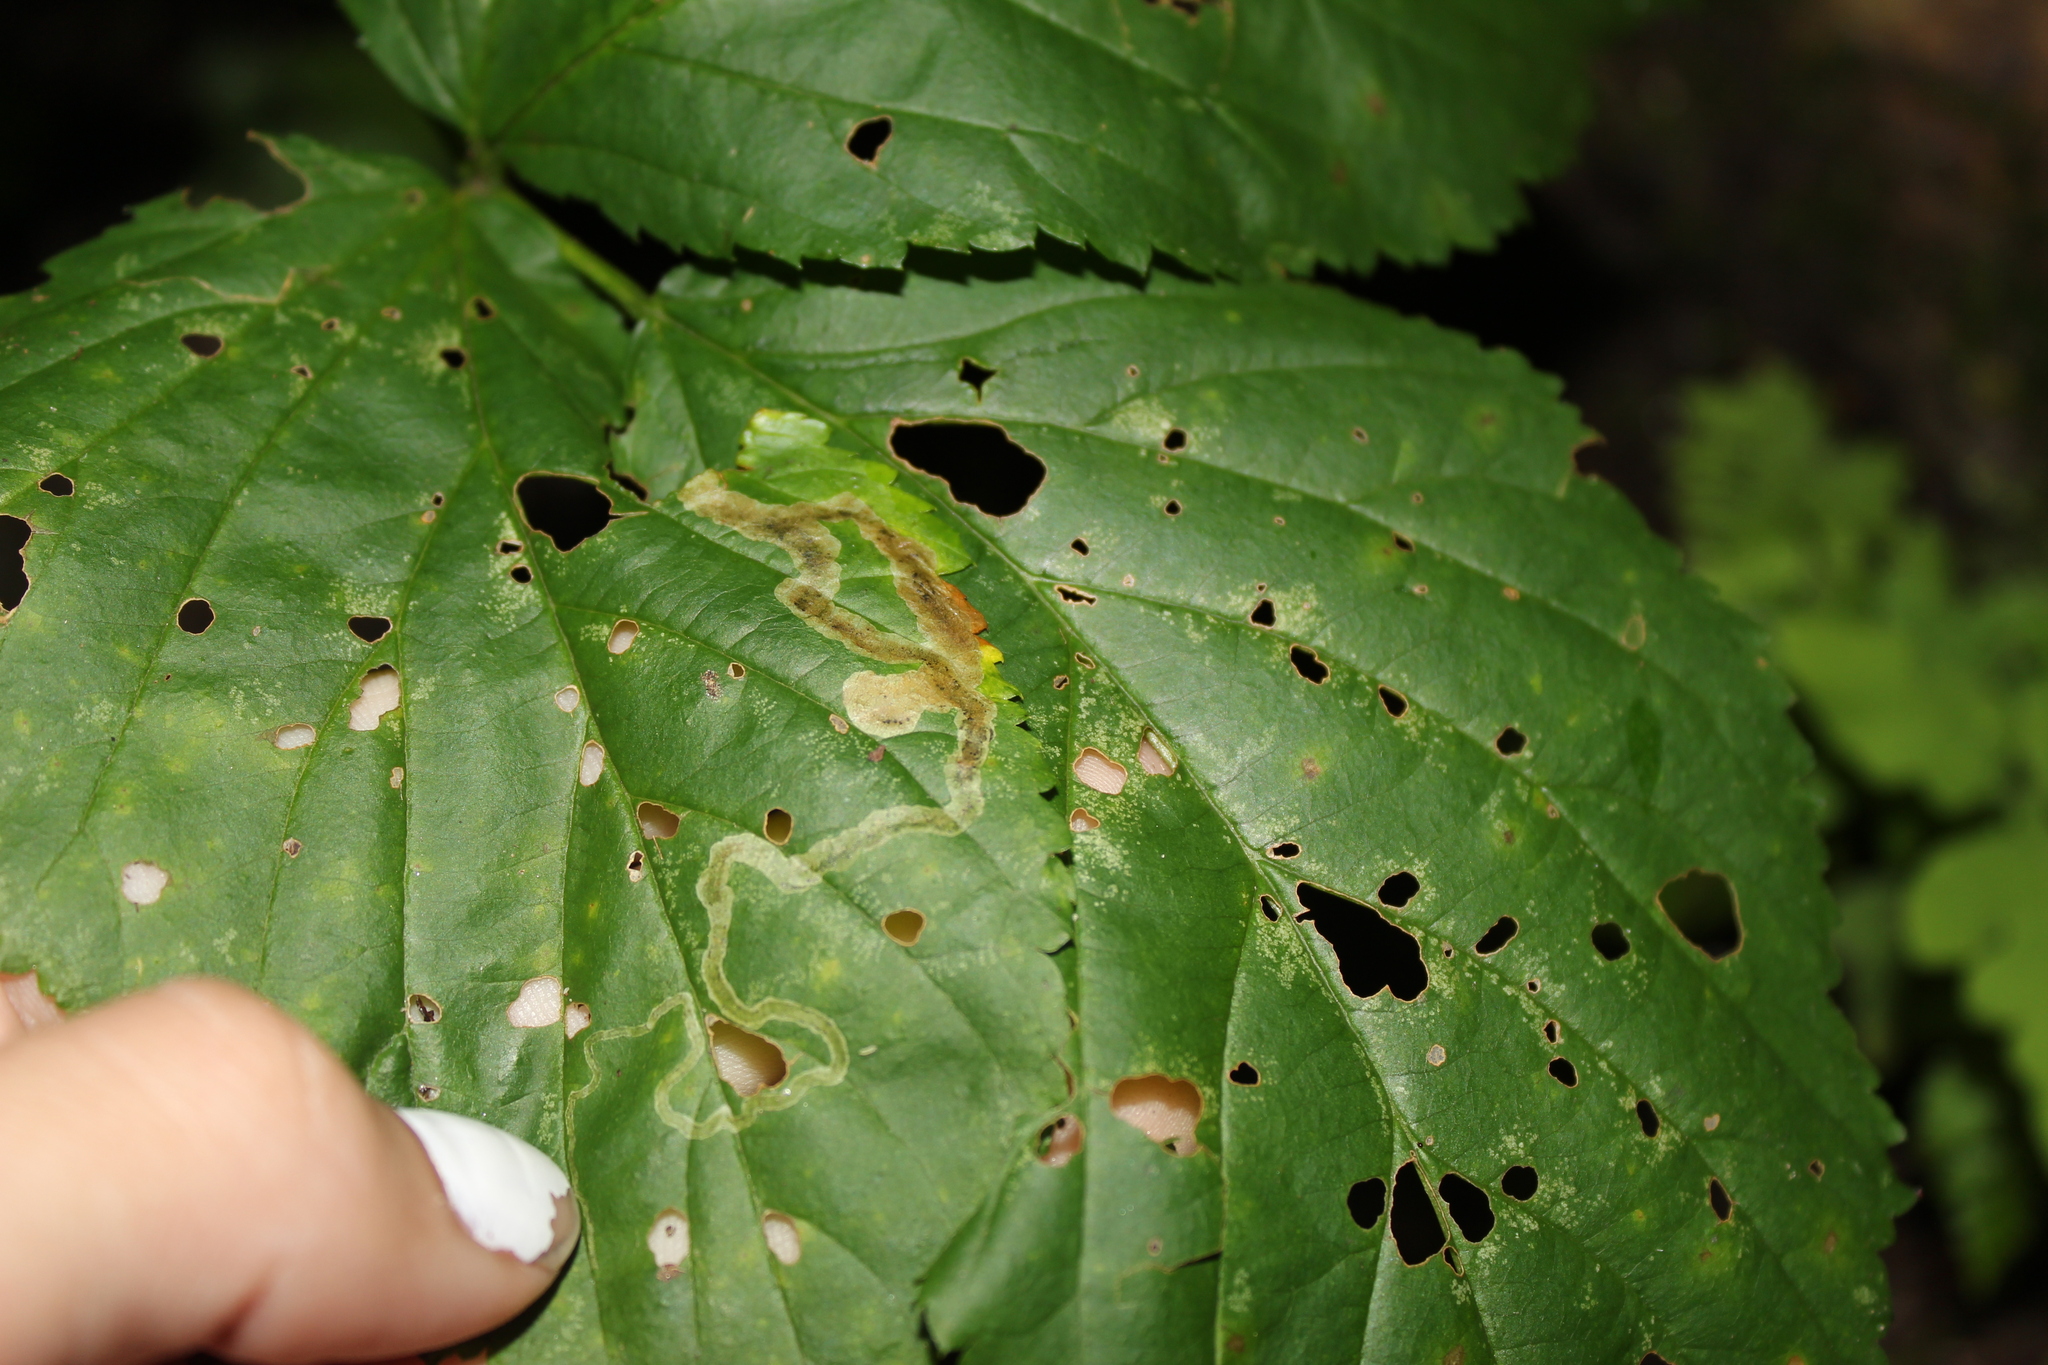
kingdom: Animalia
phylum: Arthropoda
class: Insecta
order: Diptera
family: Agromyzidae
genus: Agromyza
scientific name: Agromyza vockerothi
